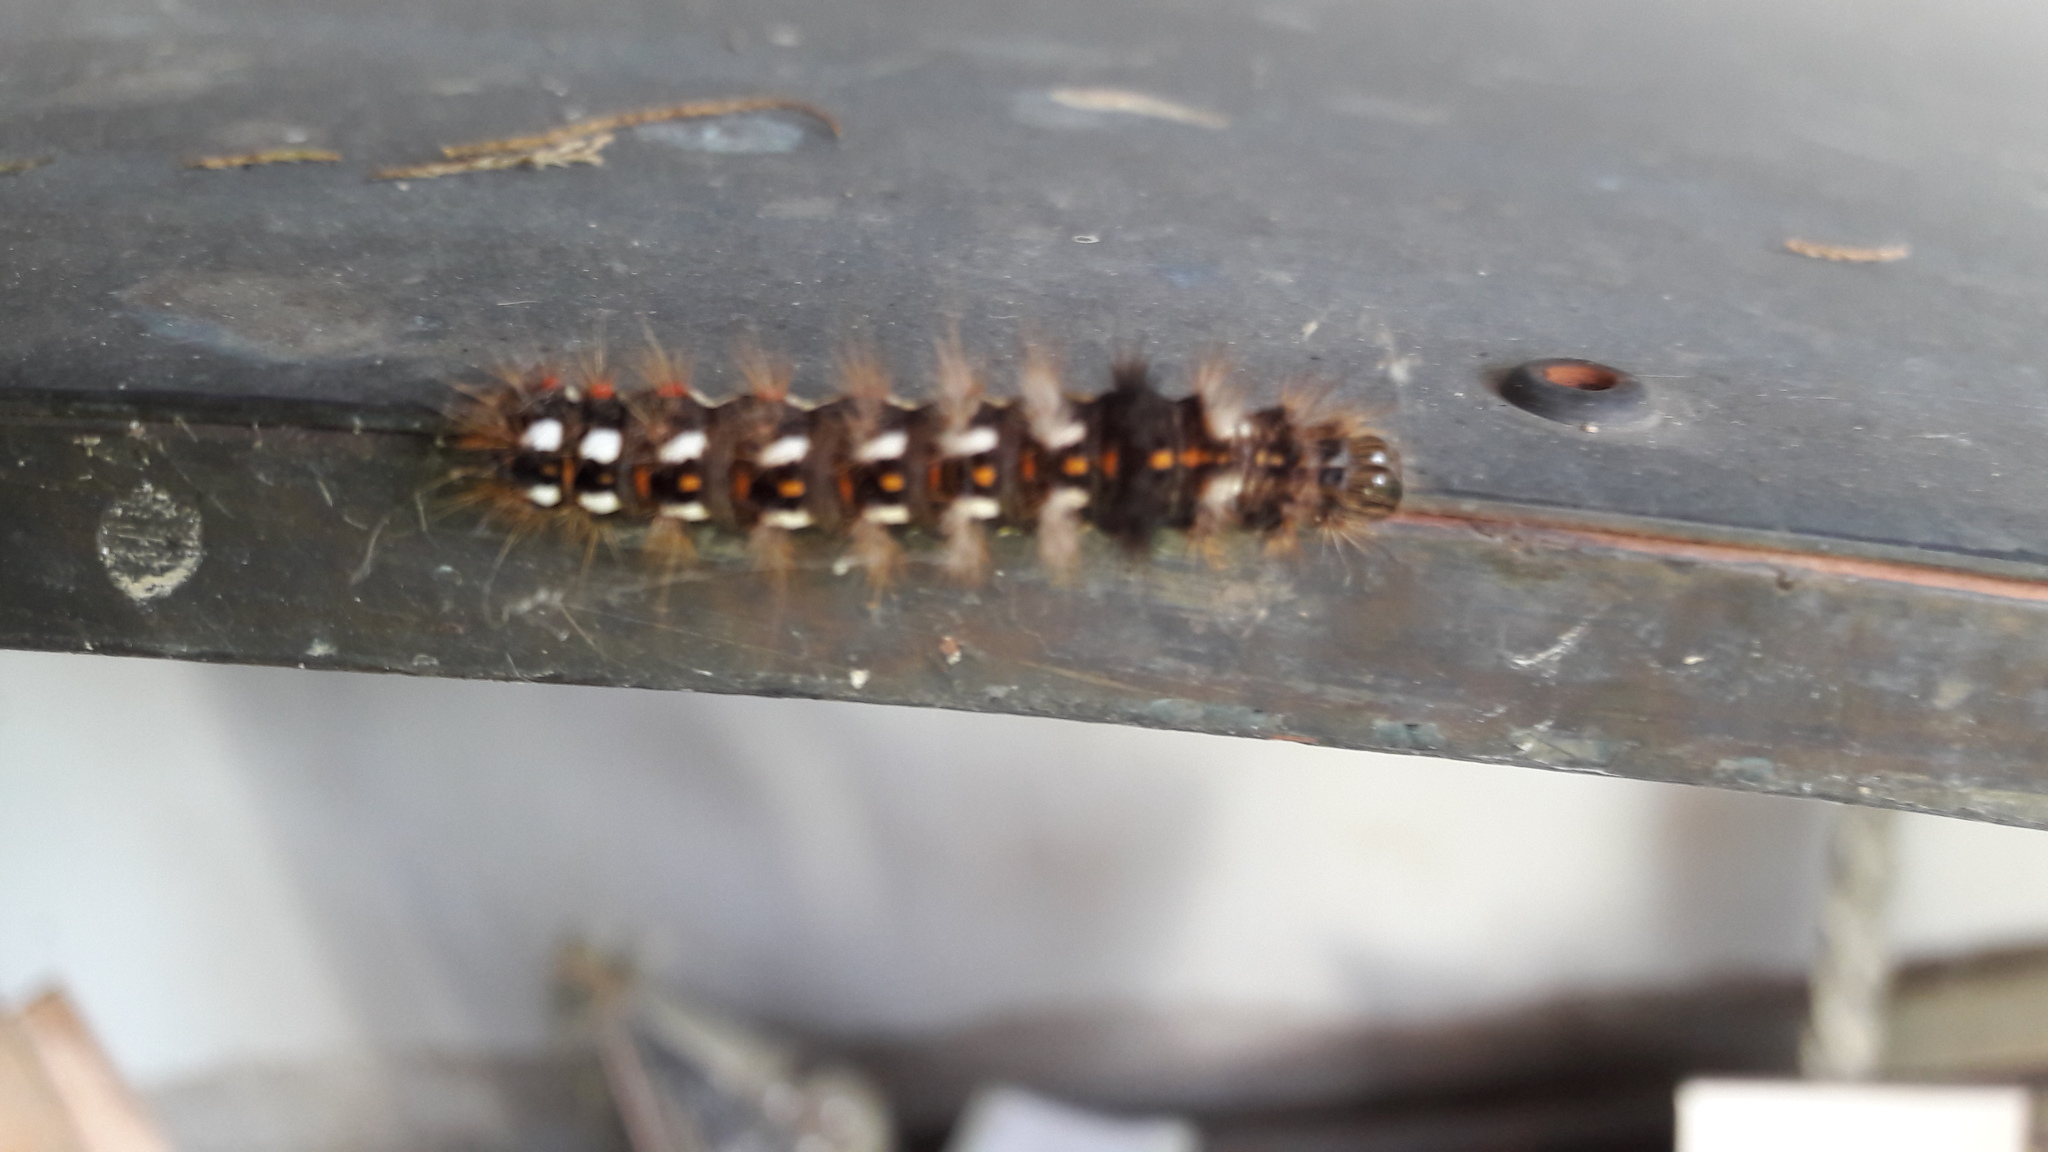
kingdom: Animalia
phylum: Arthropoda
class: Insecta
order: Lepidoptera
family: Noctuidae
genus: Acronicta
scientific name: Acronicta rumicis
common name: Knot grass
